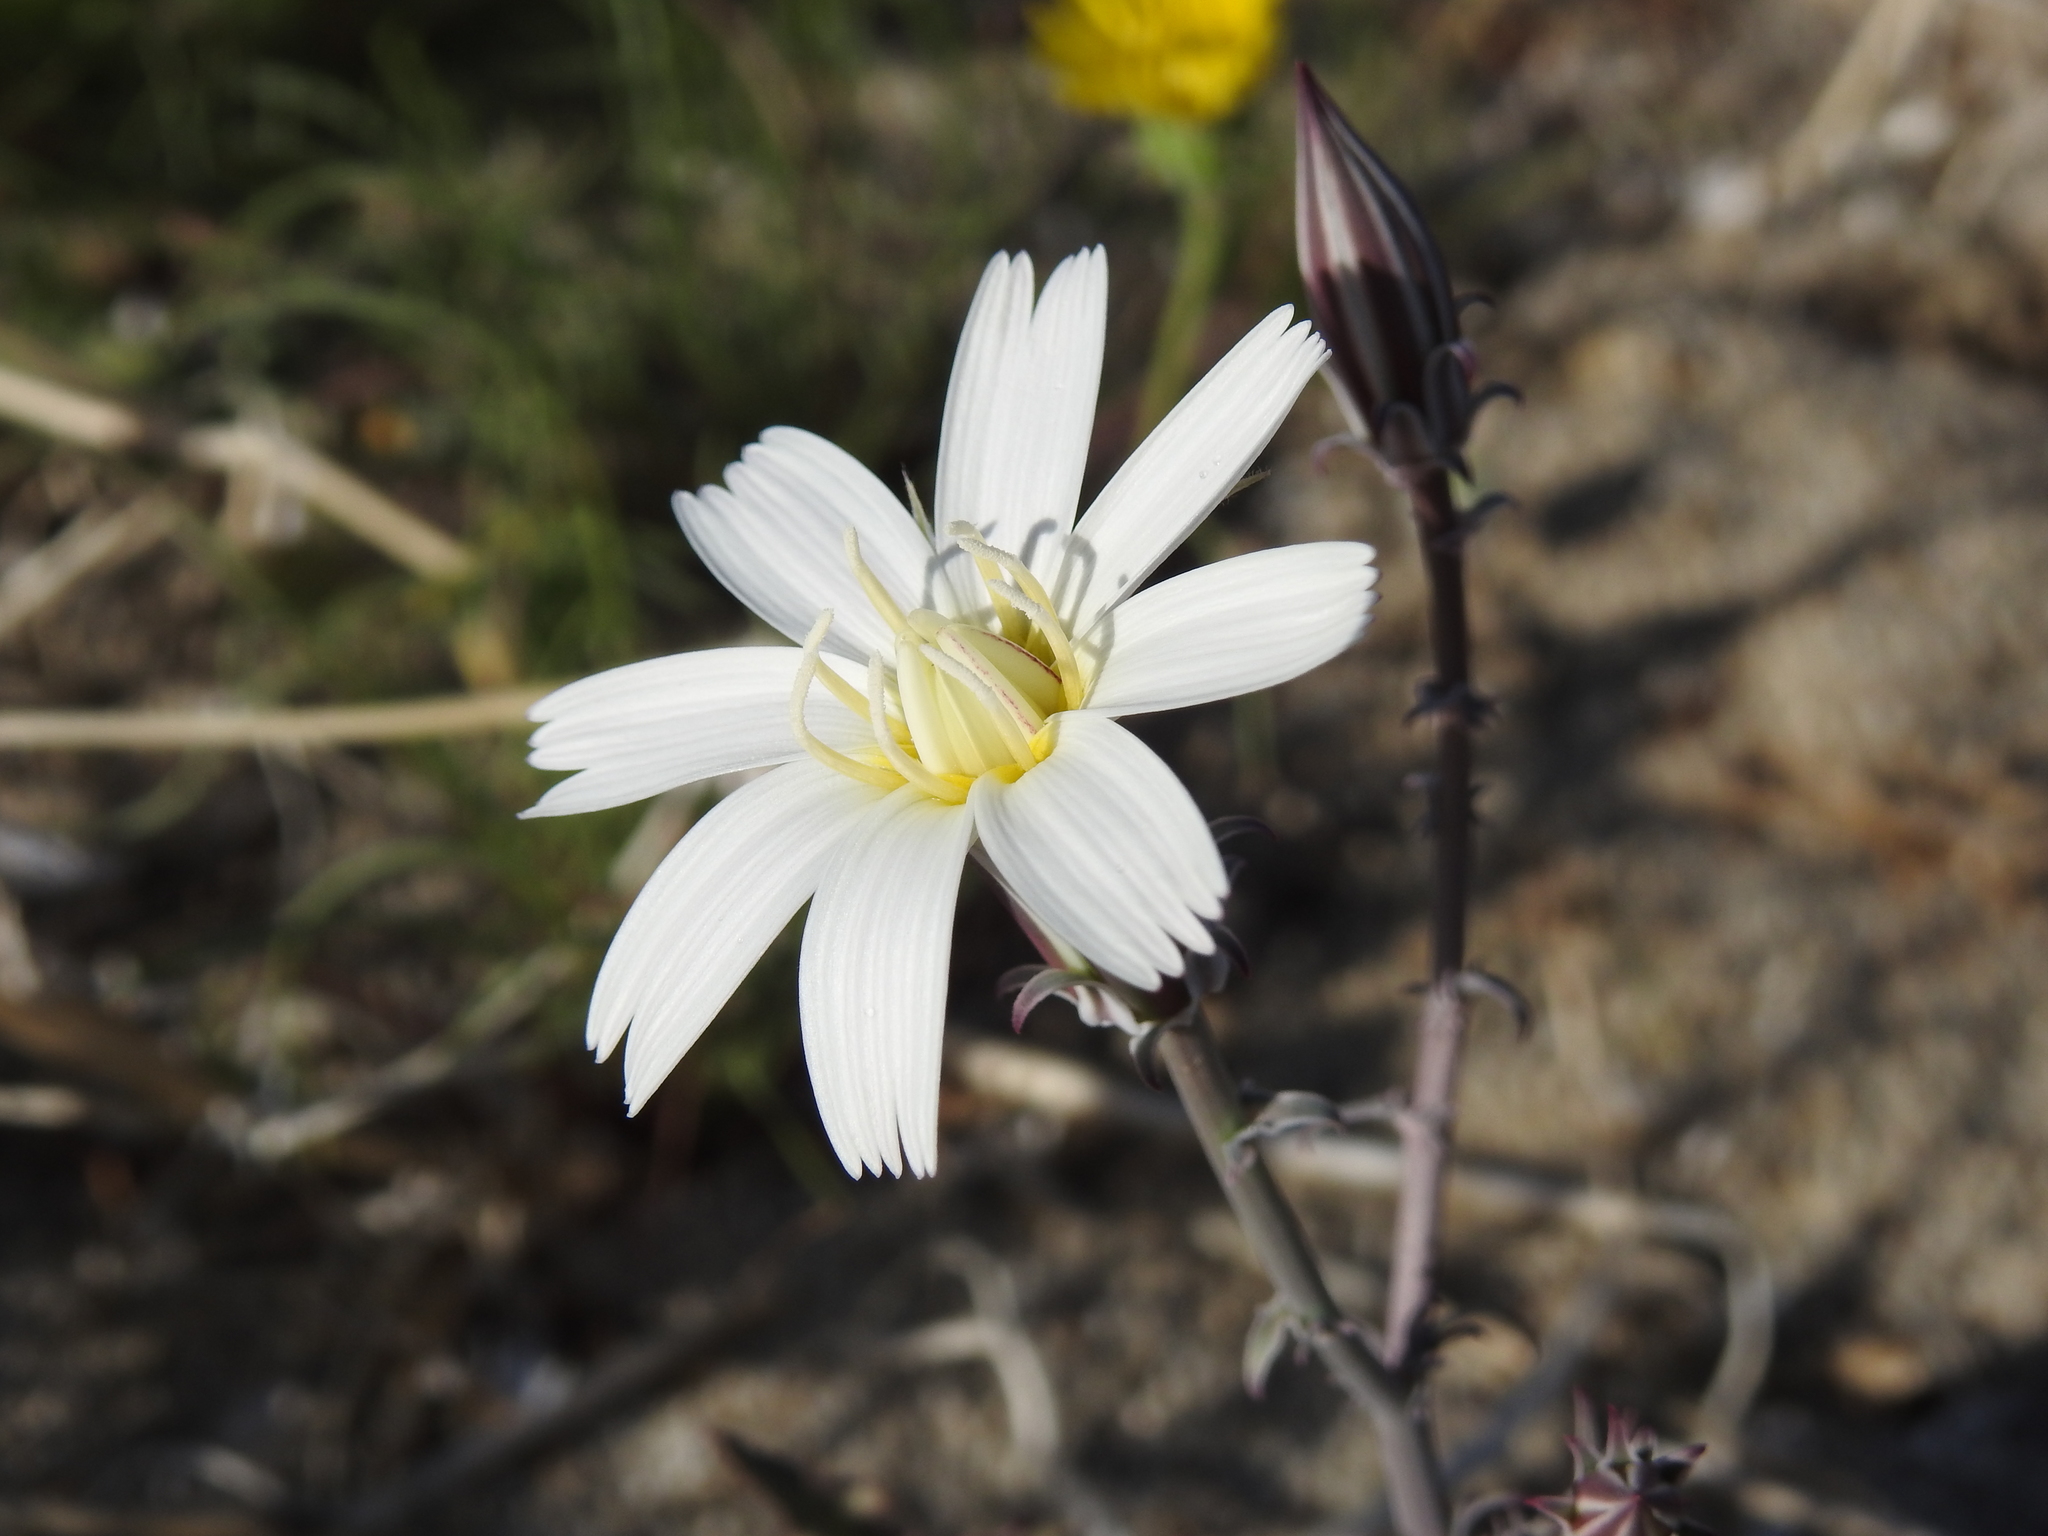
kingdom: Plantae
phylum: Tracheophyta
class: Magnoliopsida
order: Asterales
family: Asteraceae
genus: Rafinesquia
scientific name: Rafinesquia neomexicana
